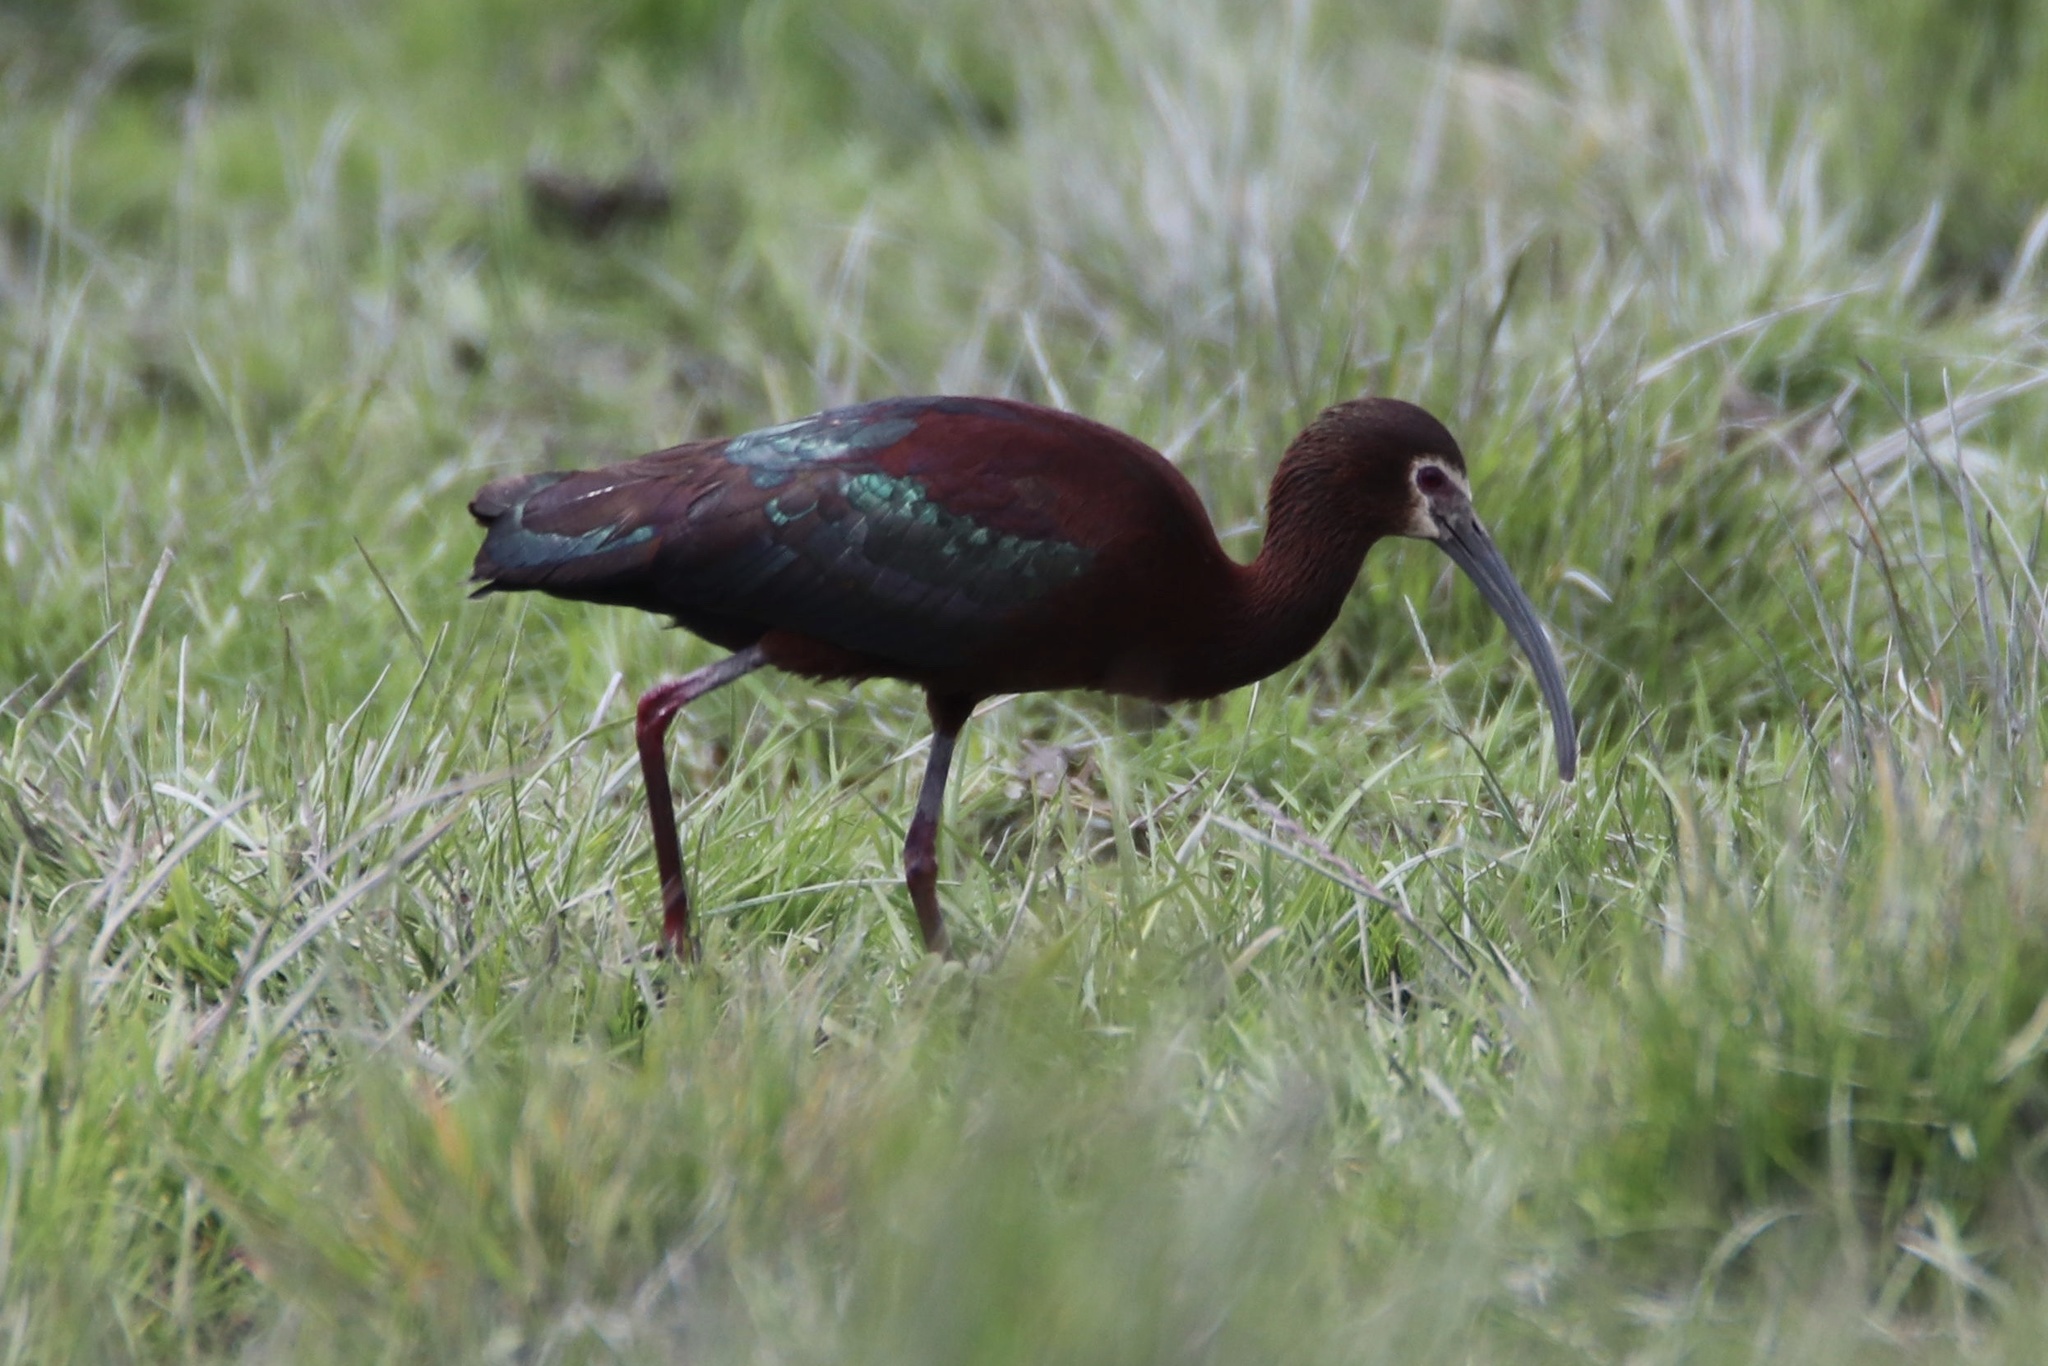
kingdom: Animalia
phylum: Chordata
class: Aves
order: Pelecaniformes
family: Threskiornithidae
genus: Plegadis
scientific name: Plegadis chihi
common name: White-faced ibis
